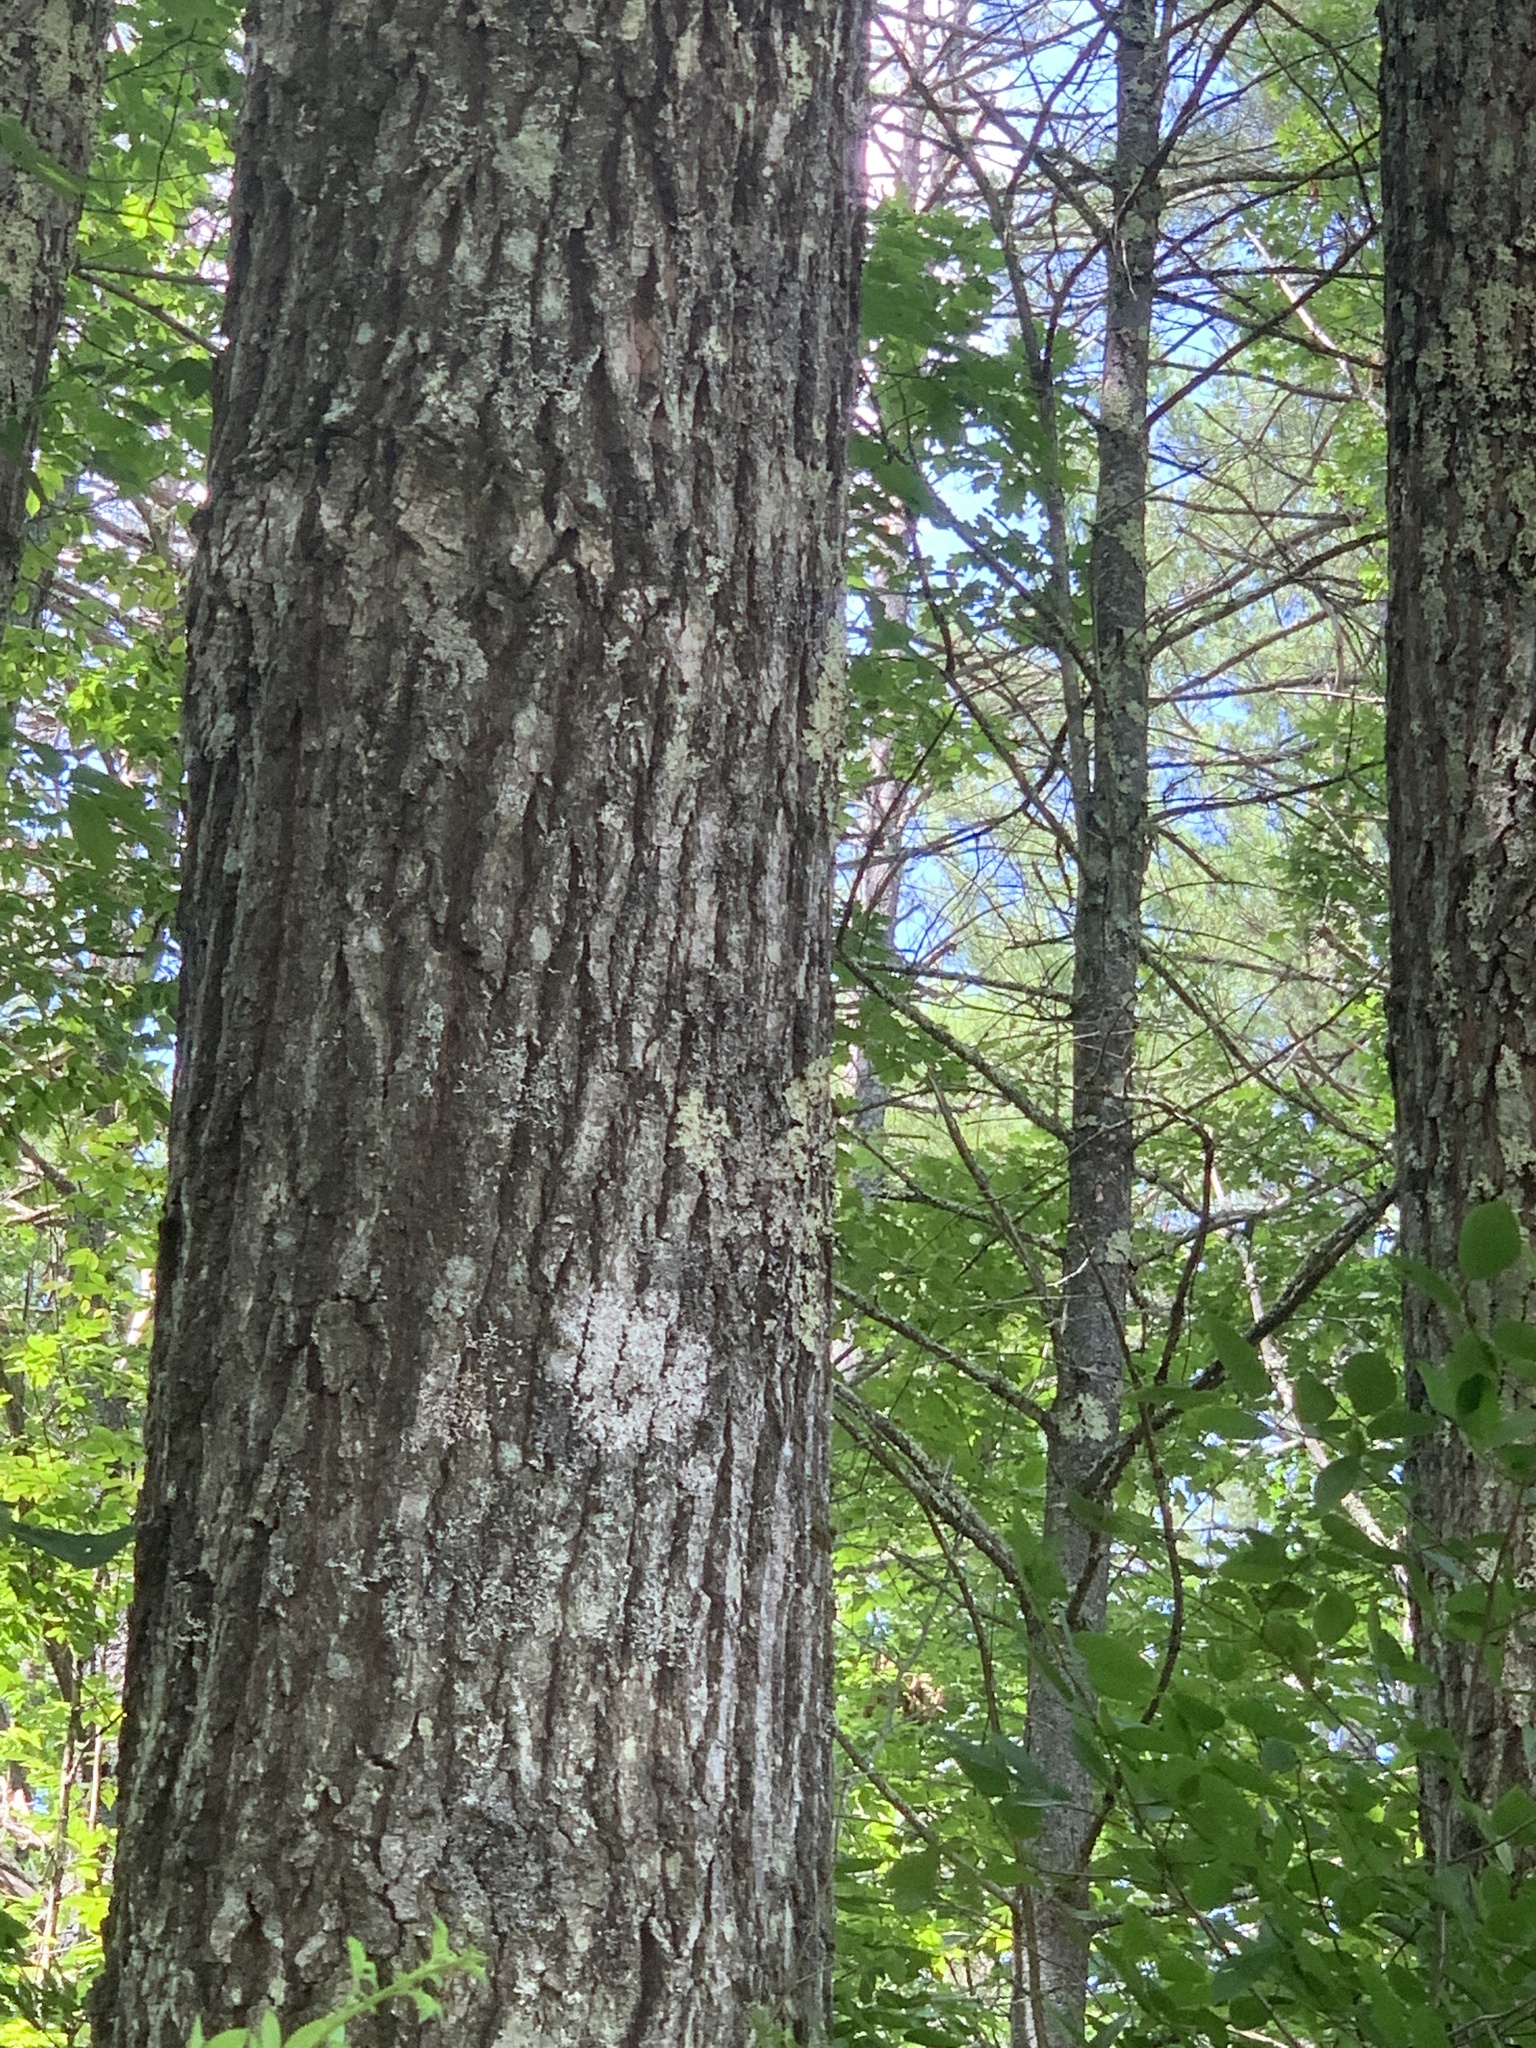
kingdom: Plantae
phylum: Tracheophyta
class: Magnoliopsida
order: Fagales
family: Fagaceae
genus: Quercus
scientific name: Quercus rubra
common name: Red oak
